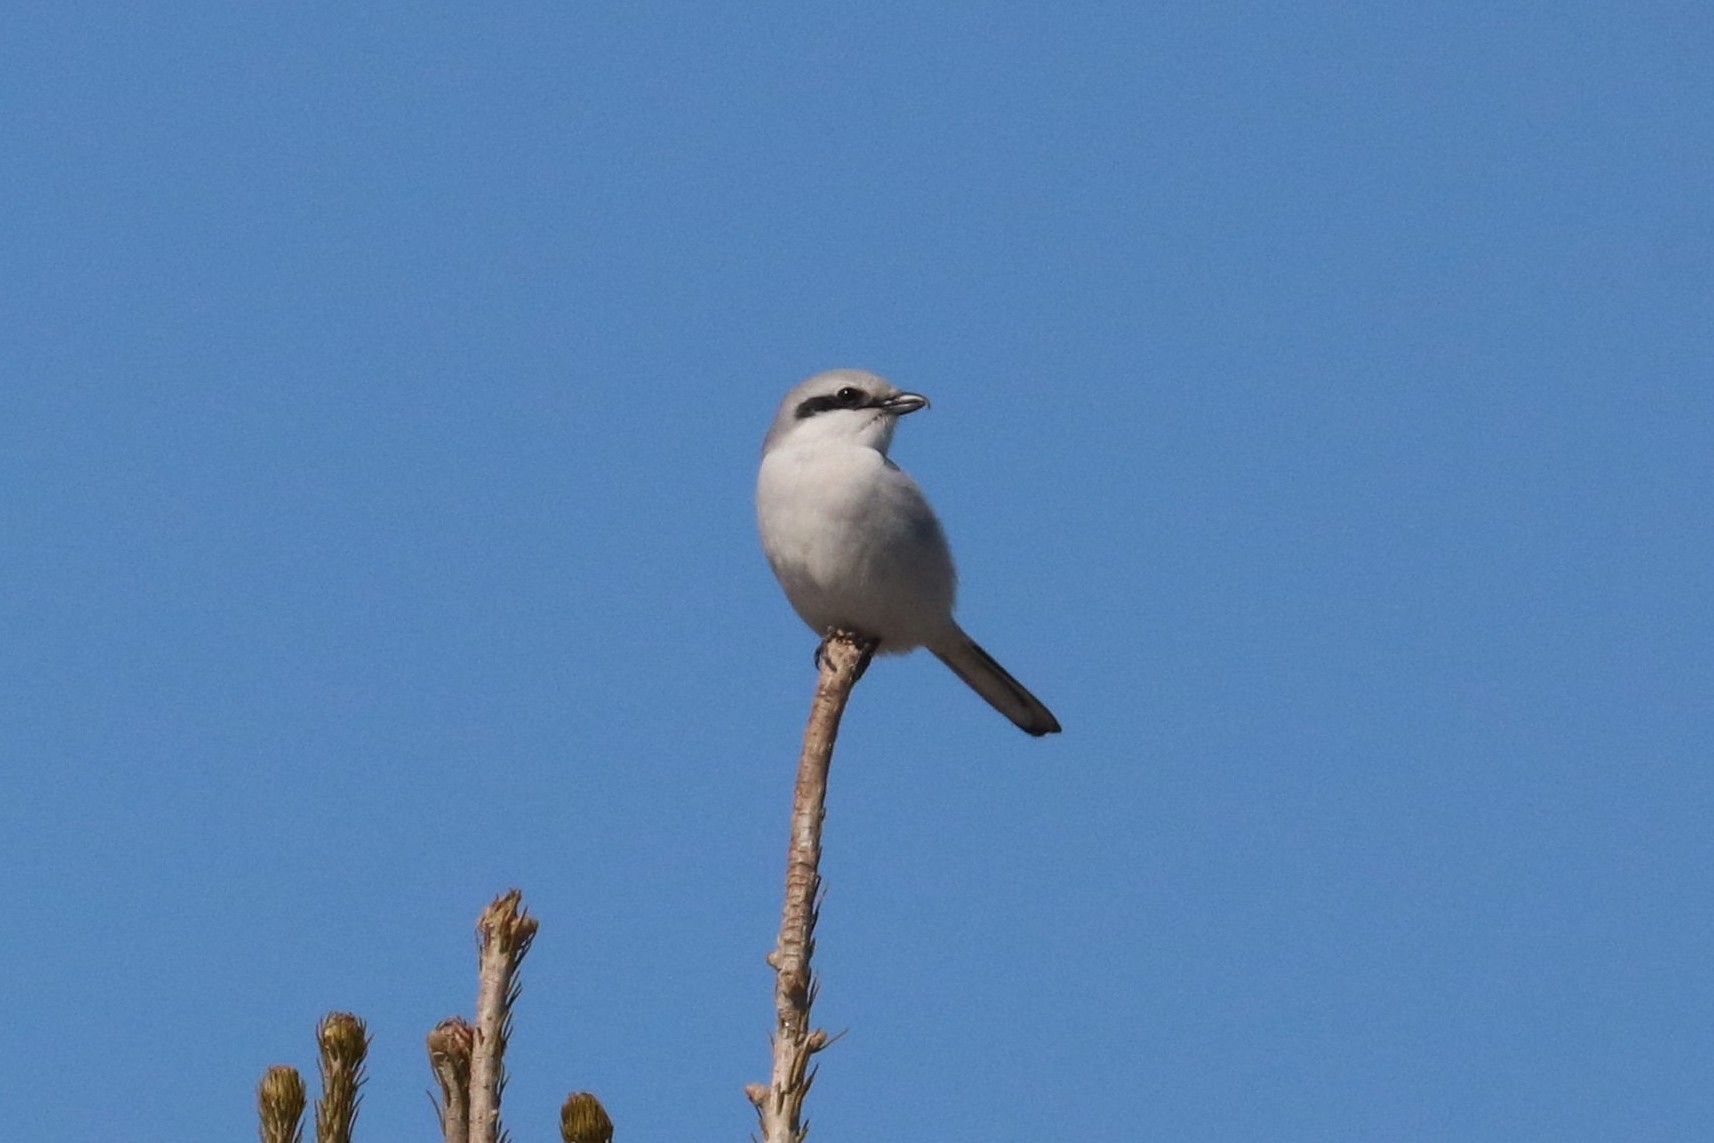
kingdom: Animalia
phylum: Chordata
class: Aves
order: Passeriformes
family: Laniidae
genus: Lanius
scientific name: Lanius excubitor
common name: Great grey shrike
